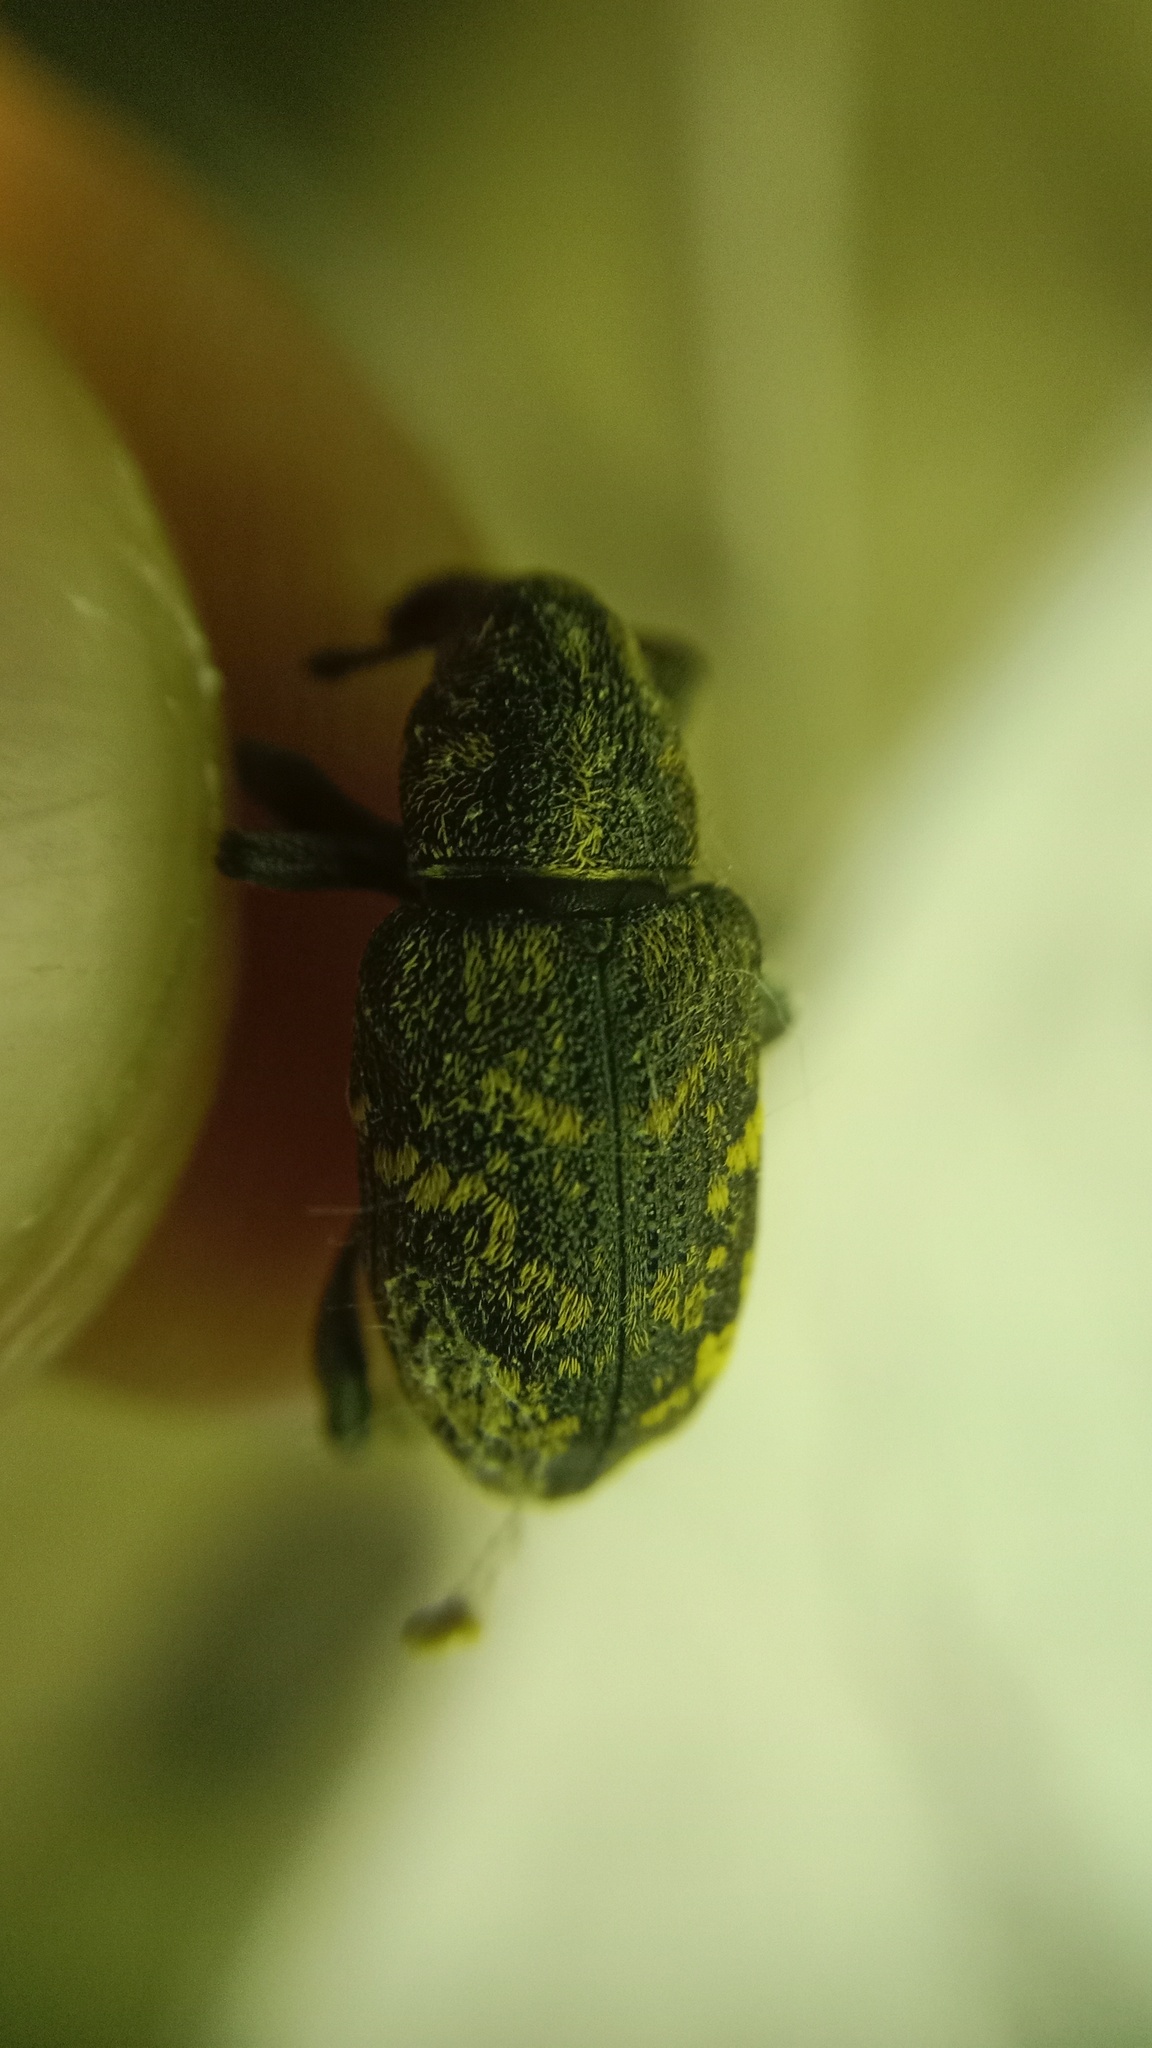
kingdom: Animalia
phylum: Arthropoda
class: Insecta
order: Coleoptera
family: Curculionidae
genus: Hylobius
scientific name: Hylobius abietis
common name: Large pine weevil
